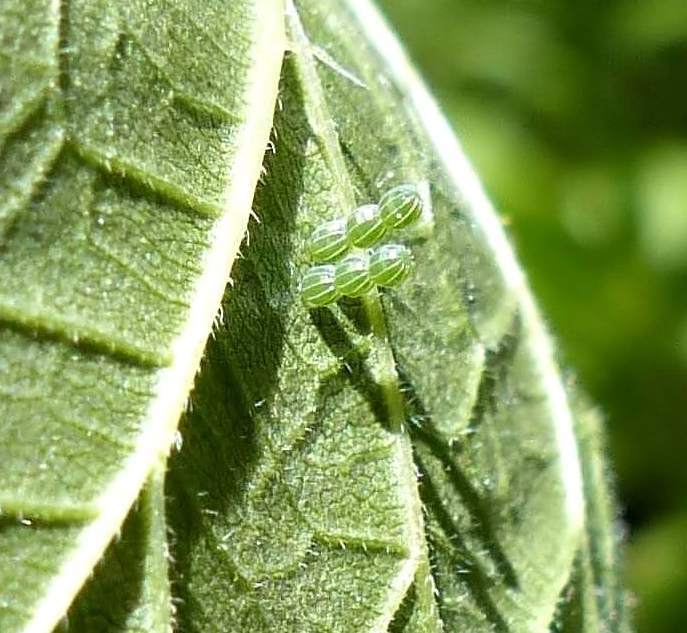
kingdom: Animalia
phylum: Arthropoda
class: Insecta
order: Lepidoptera
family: Nymphalidae
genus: Polygonia
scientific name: Polygonia comma
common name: Eastern comma
